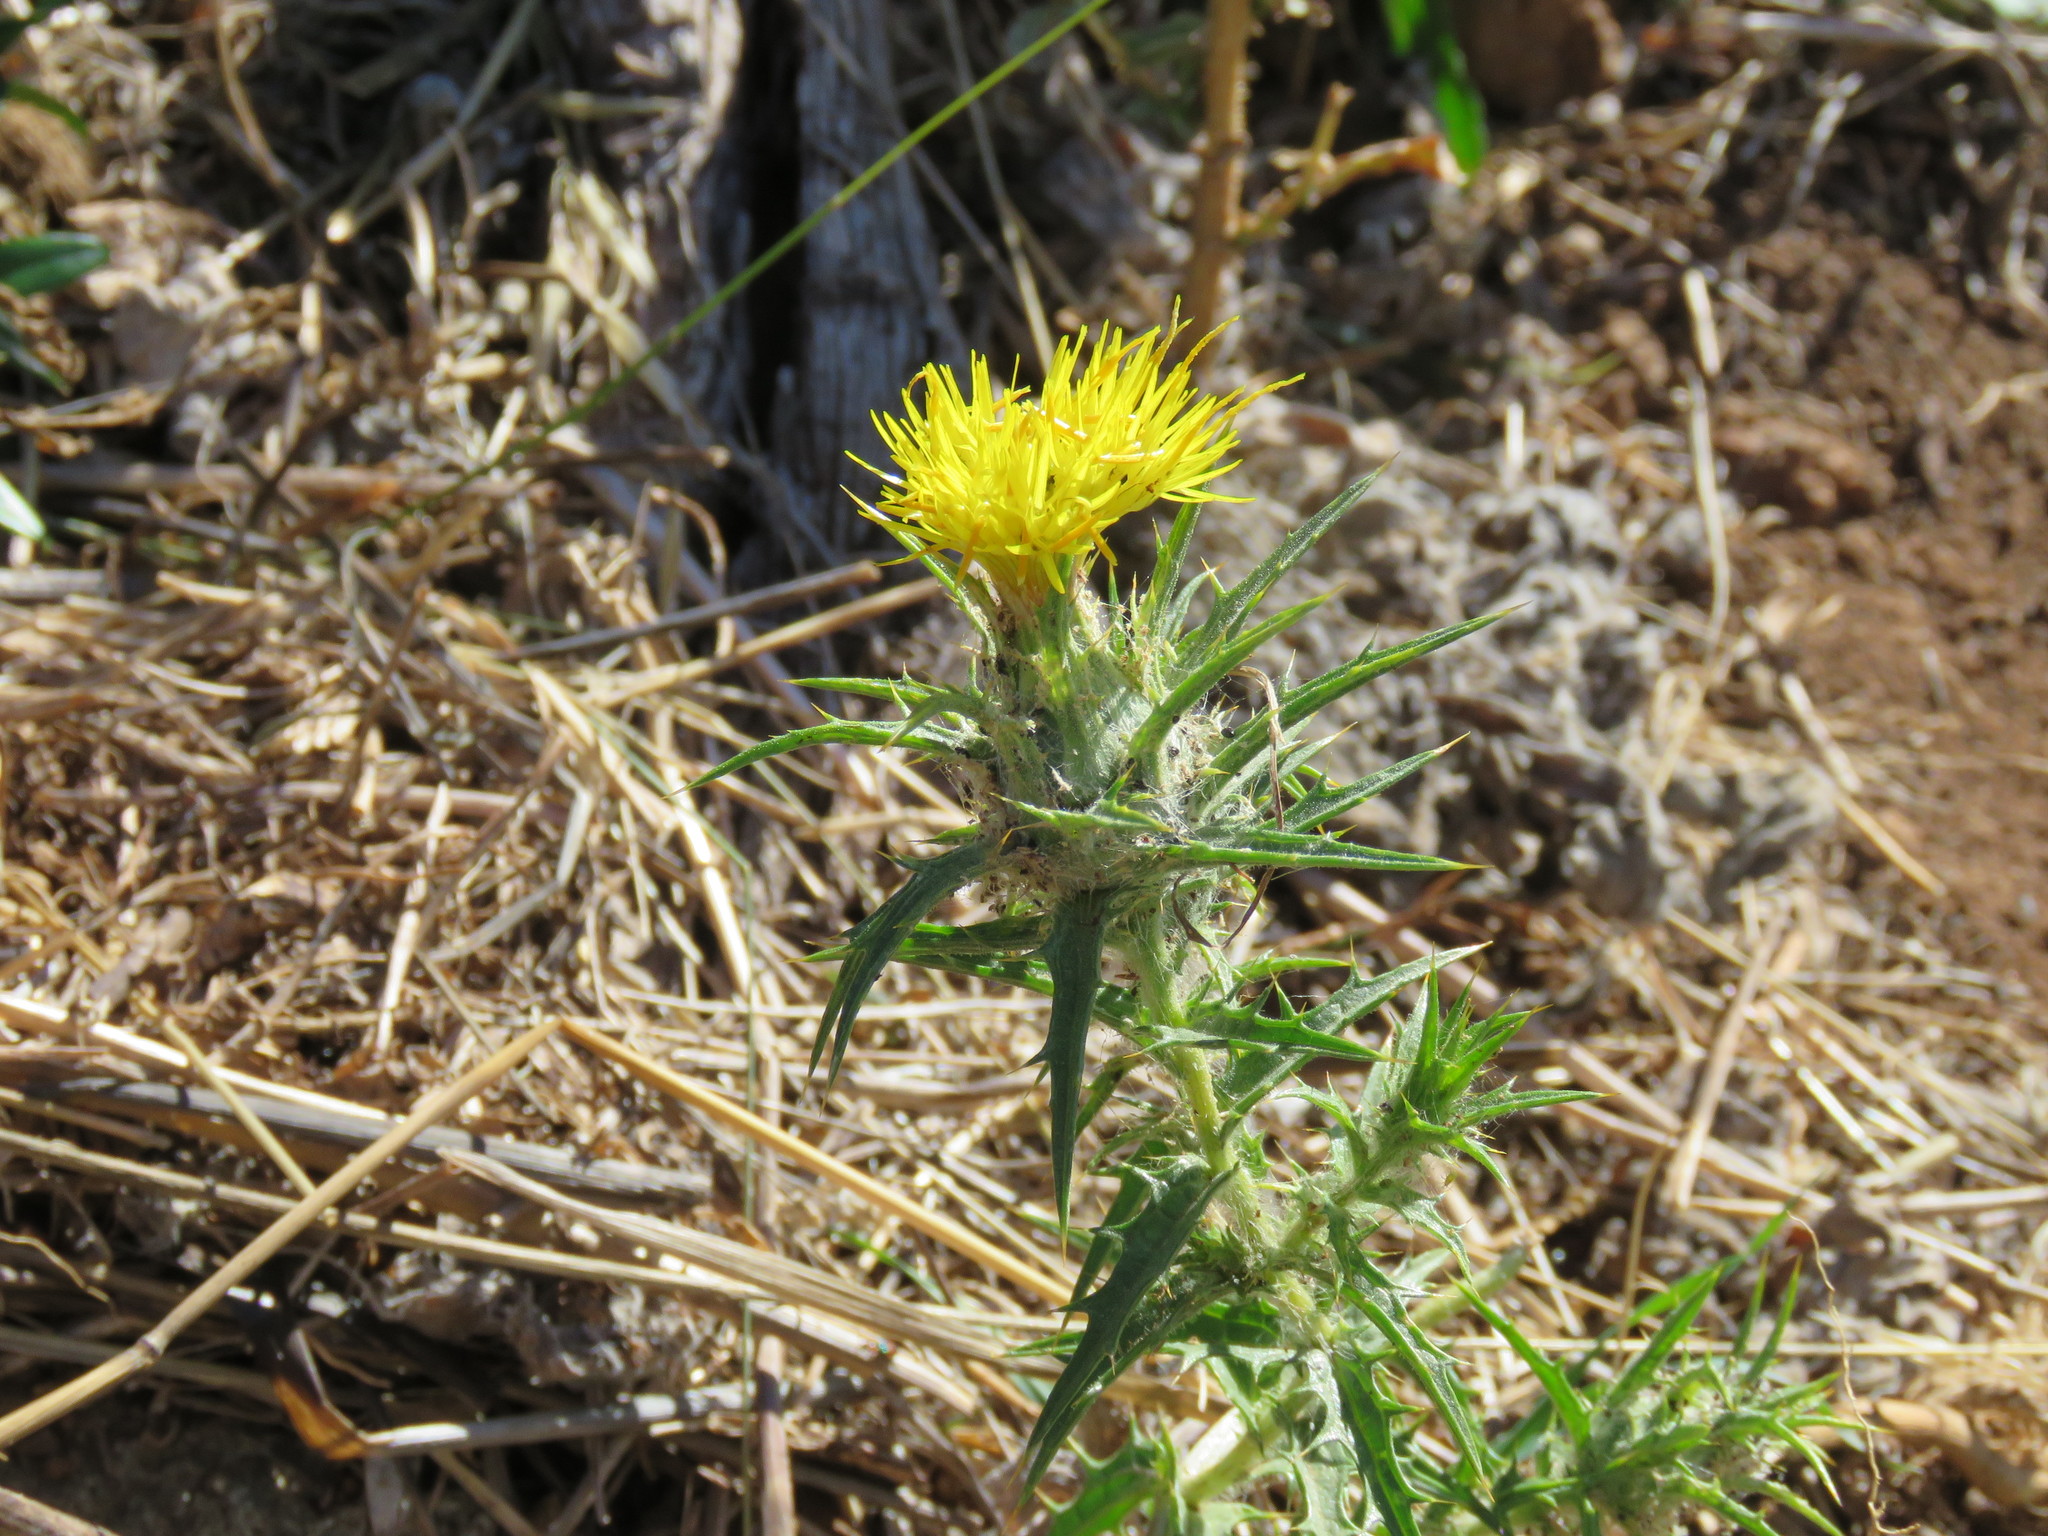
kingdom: Plantae
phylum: Tracheophyta
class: Magnoliopsida
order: Asterales
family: Asteraceae
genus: Carthamus
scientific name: Carthamus lanatus
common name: Downy safflower
